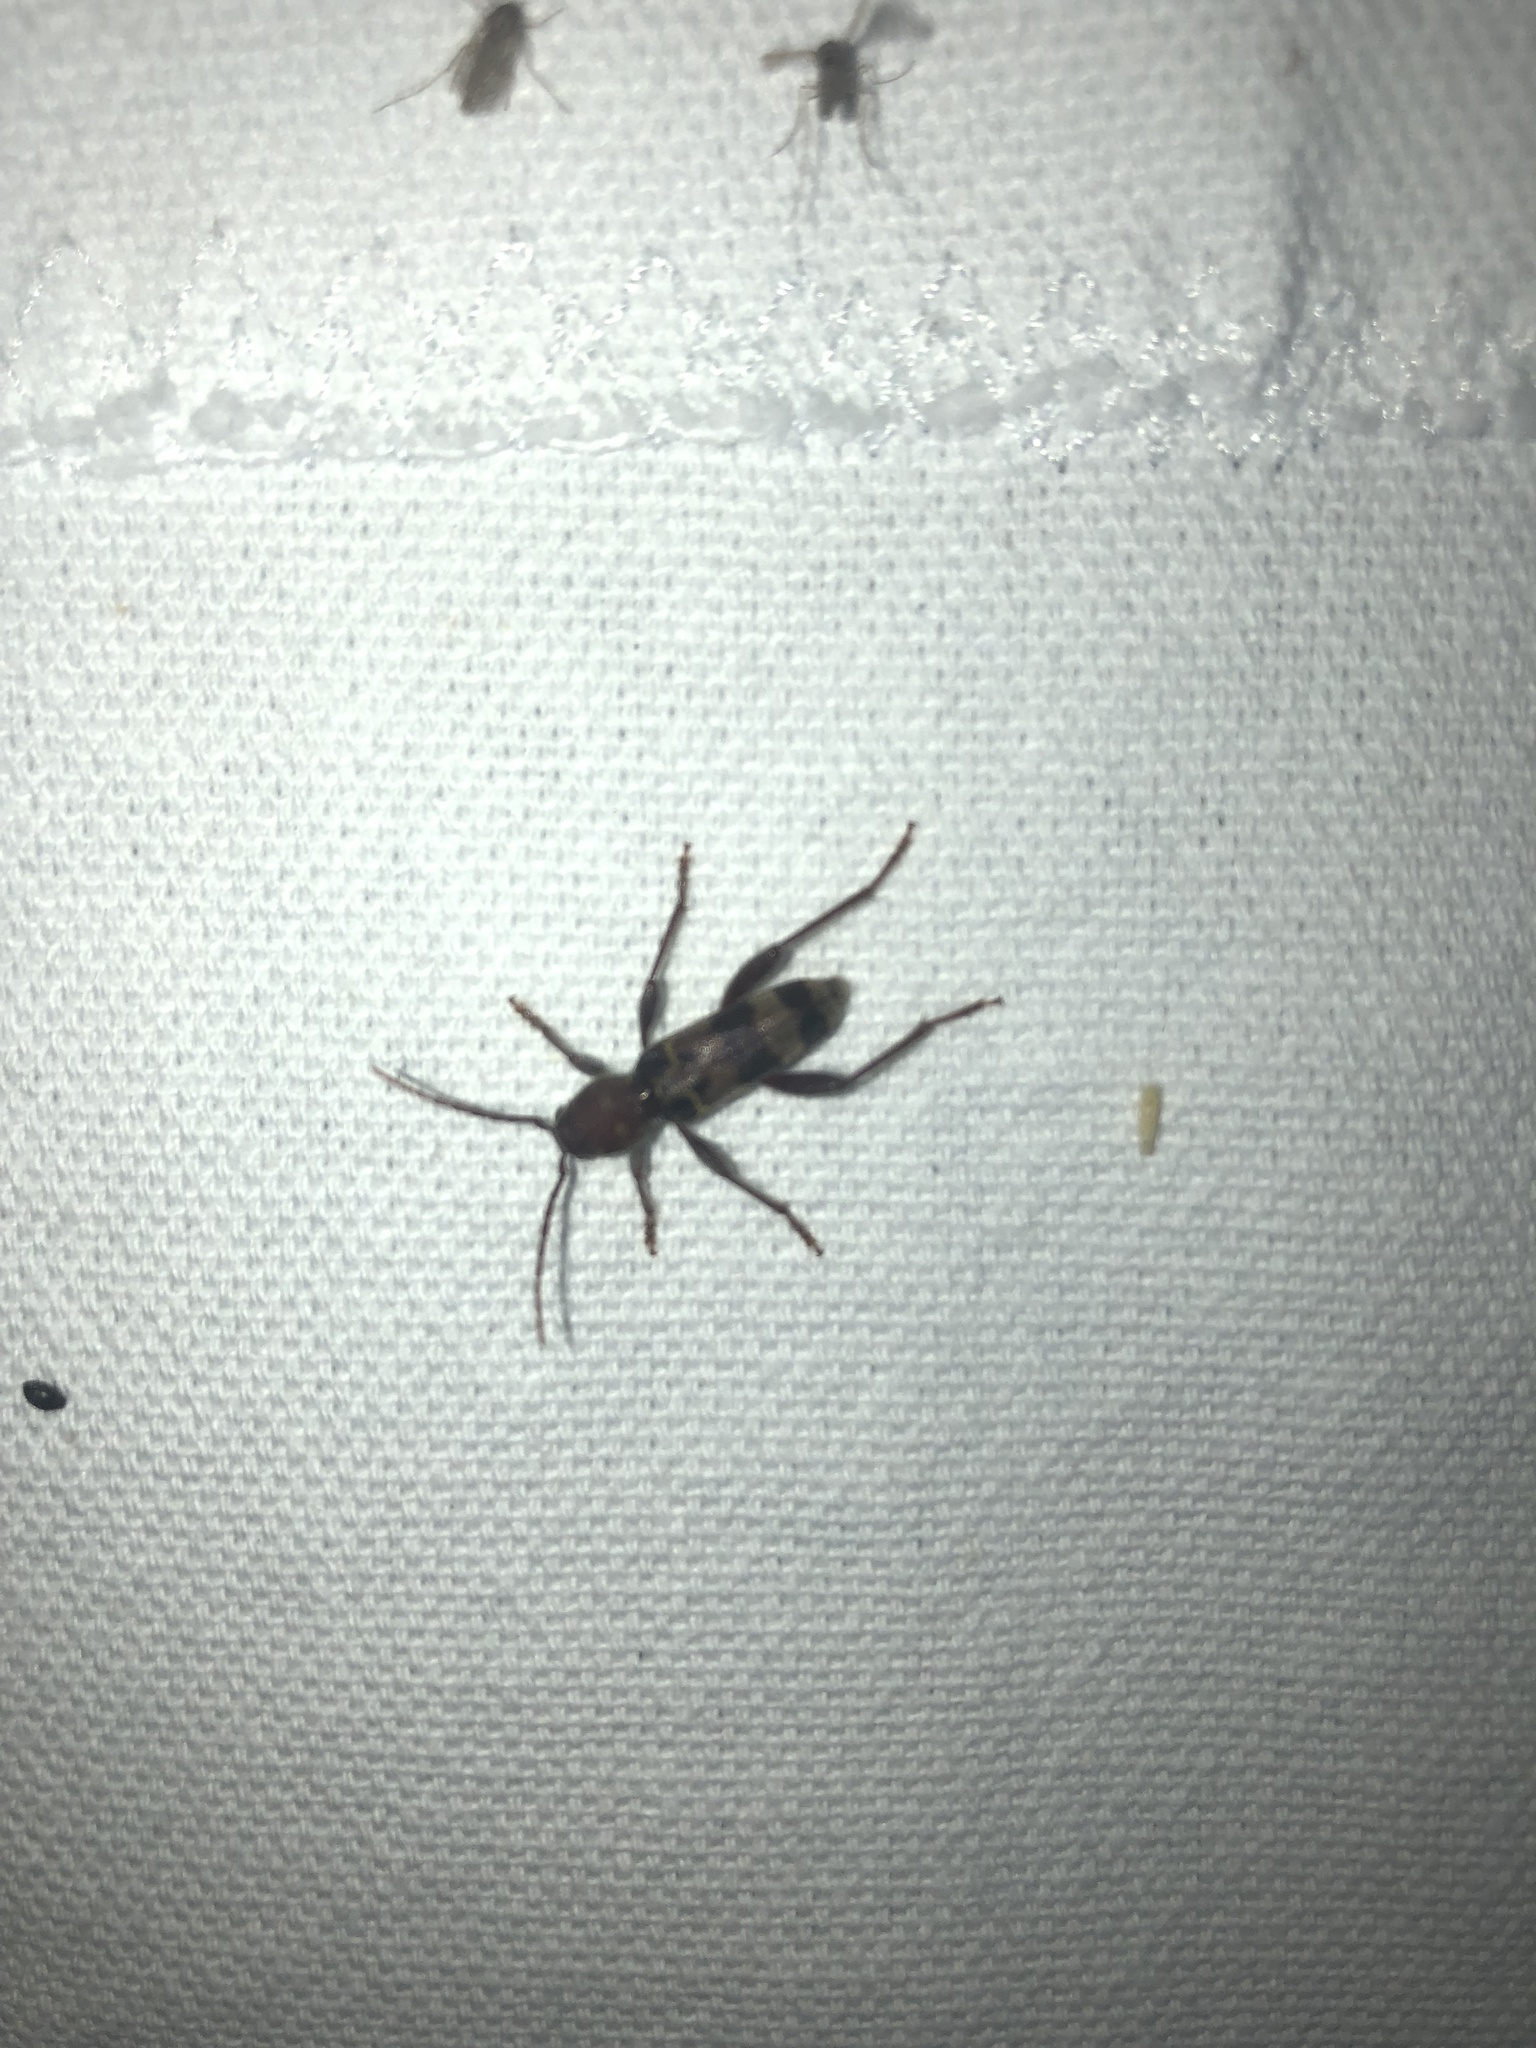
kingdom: Animalia
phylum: Arthropoda
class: Insecta
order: Coleoptera
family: Cerambycidae
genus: Xylotrechus
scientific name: Xylotrechus colonus
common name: Long-horned beetle
